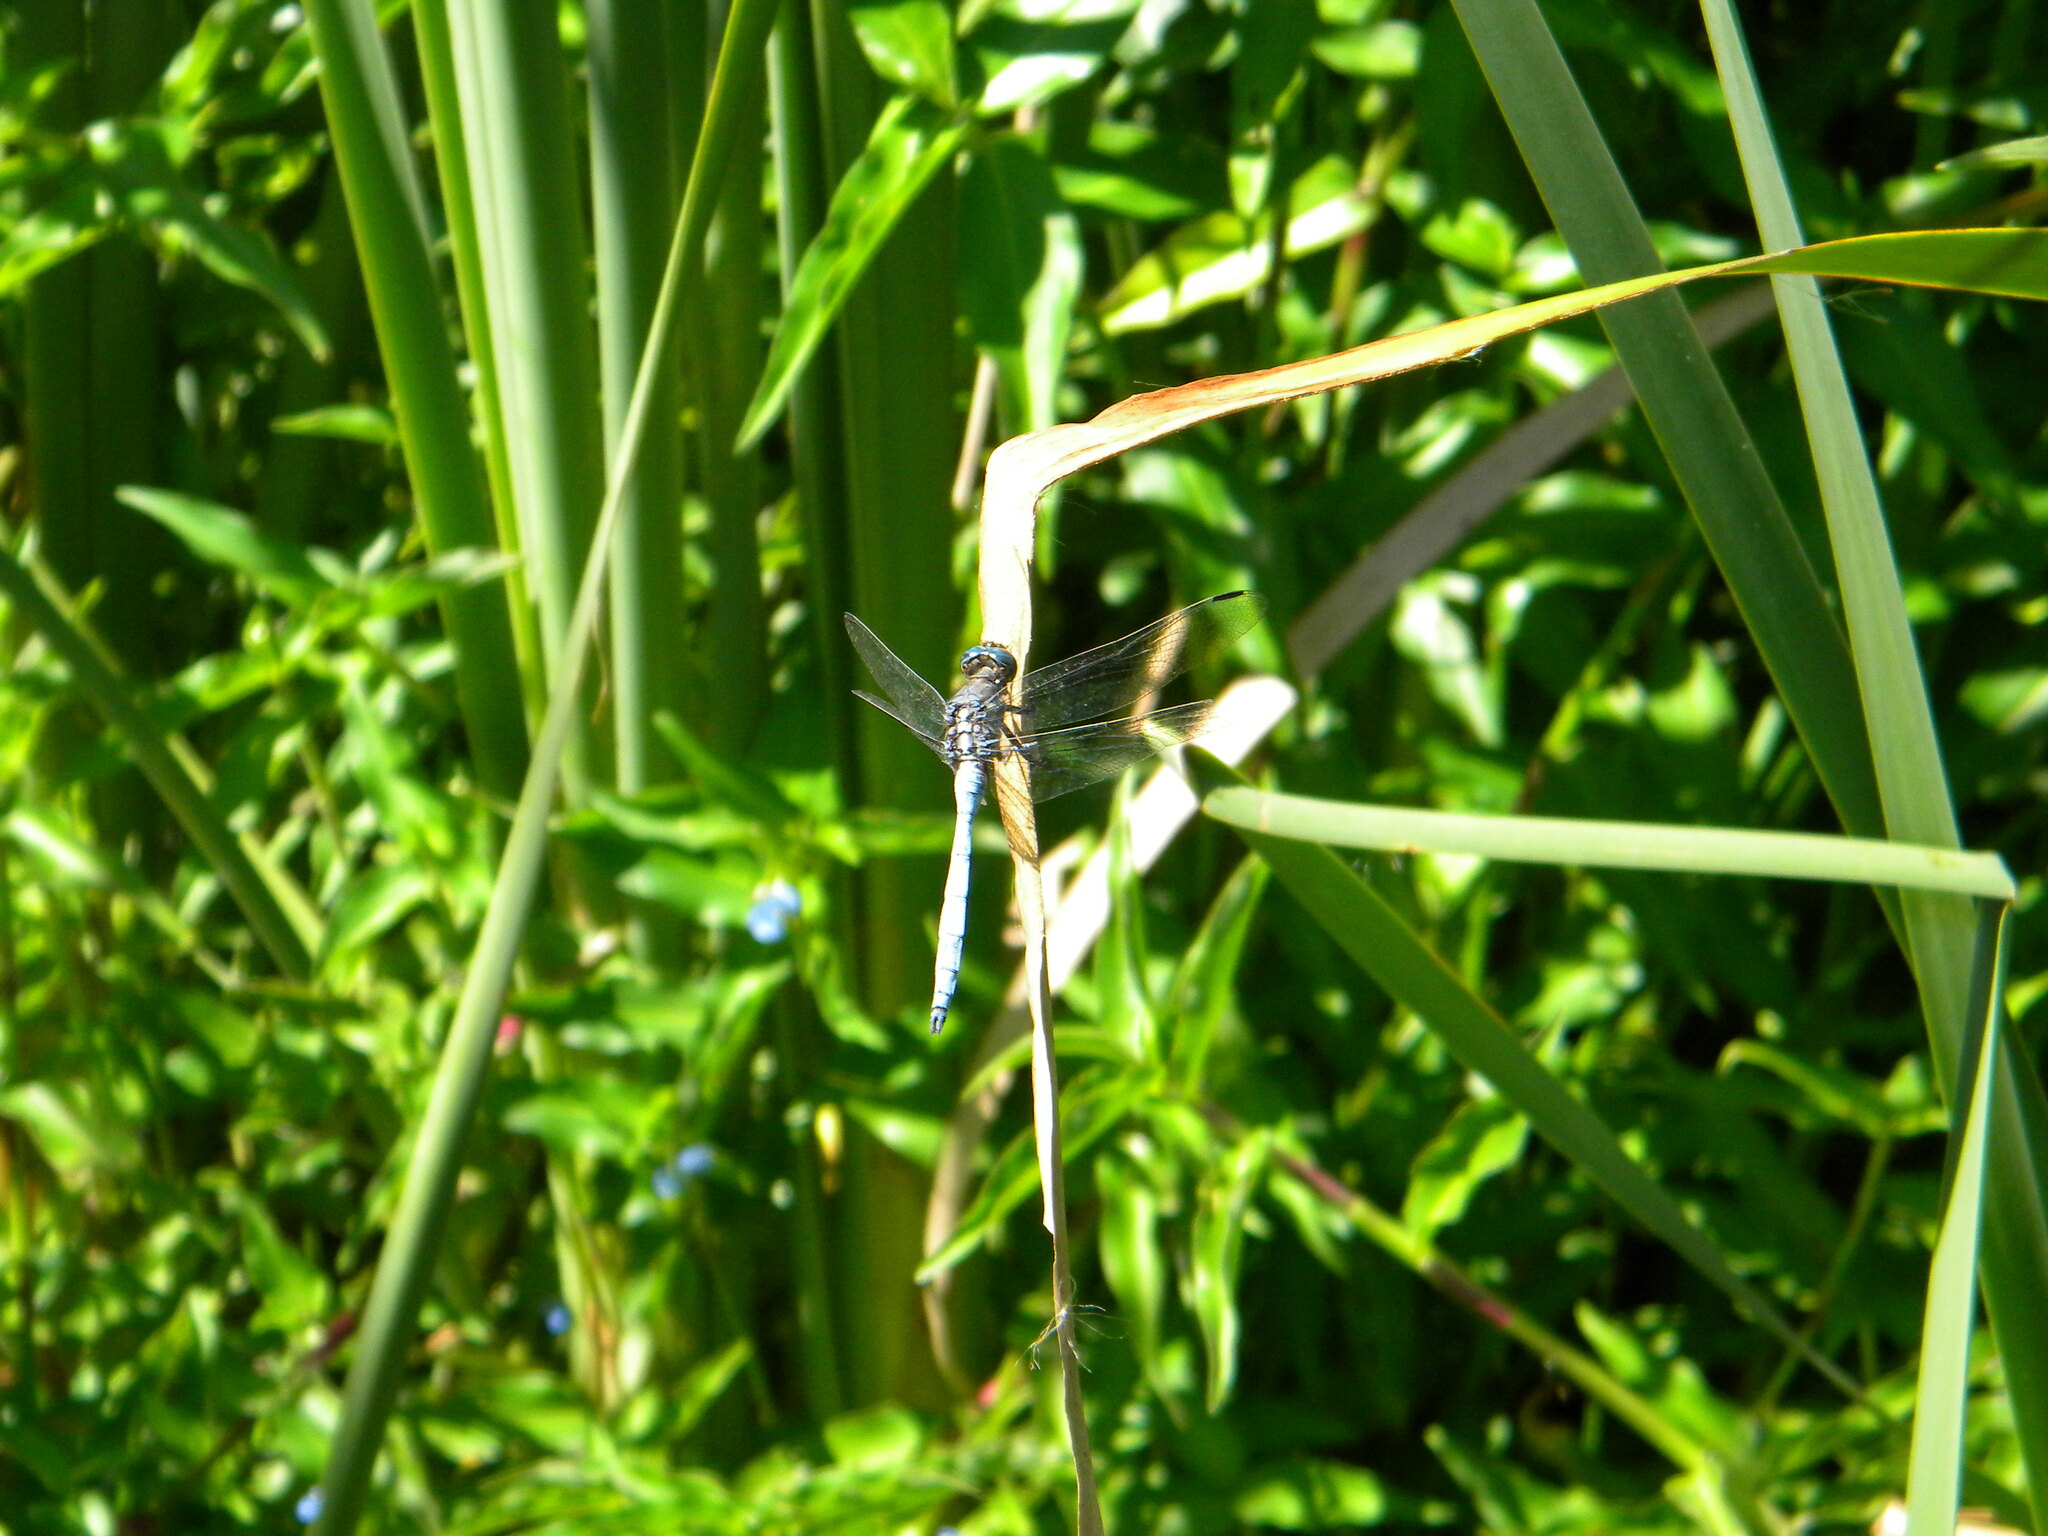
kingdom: Animalia
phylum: Arthropoda
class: Insecta
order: Odonata
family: Libellulidae
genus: Orthetrum
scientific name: Orthetrum julia
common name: Julia skimmer
